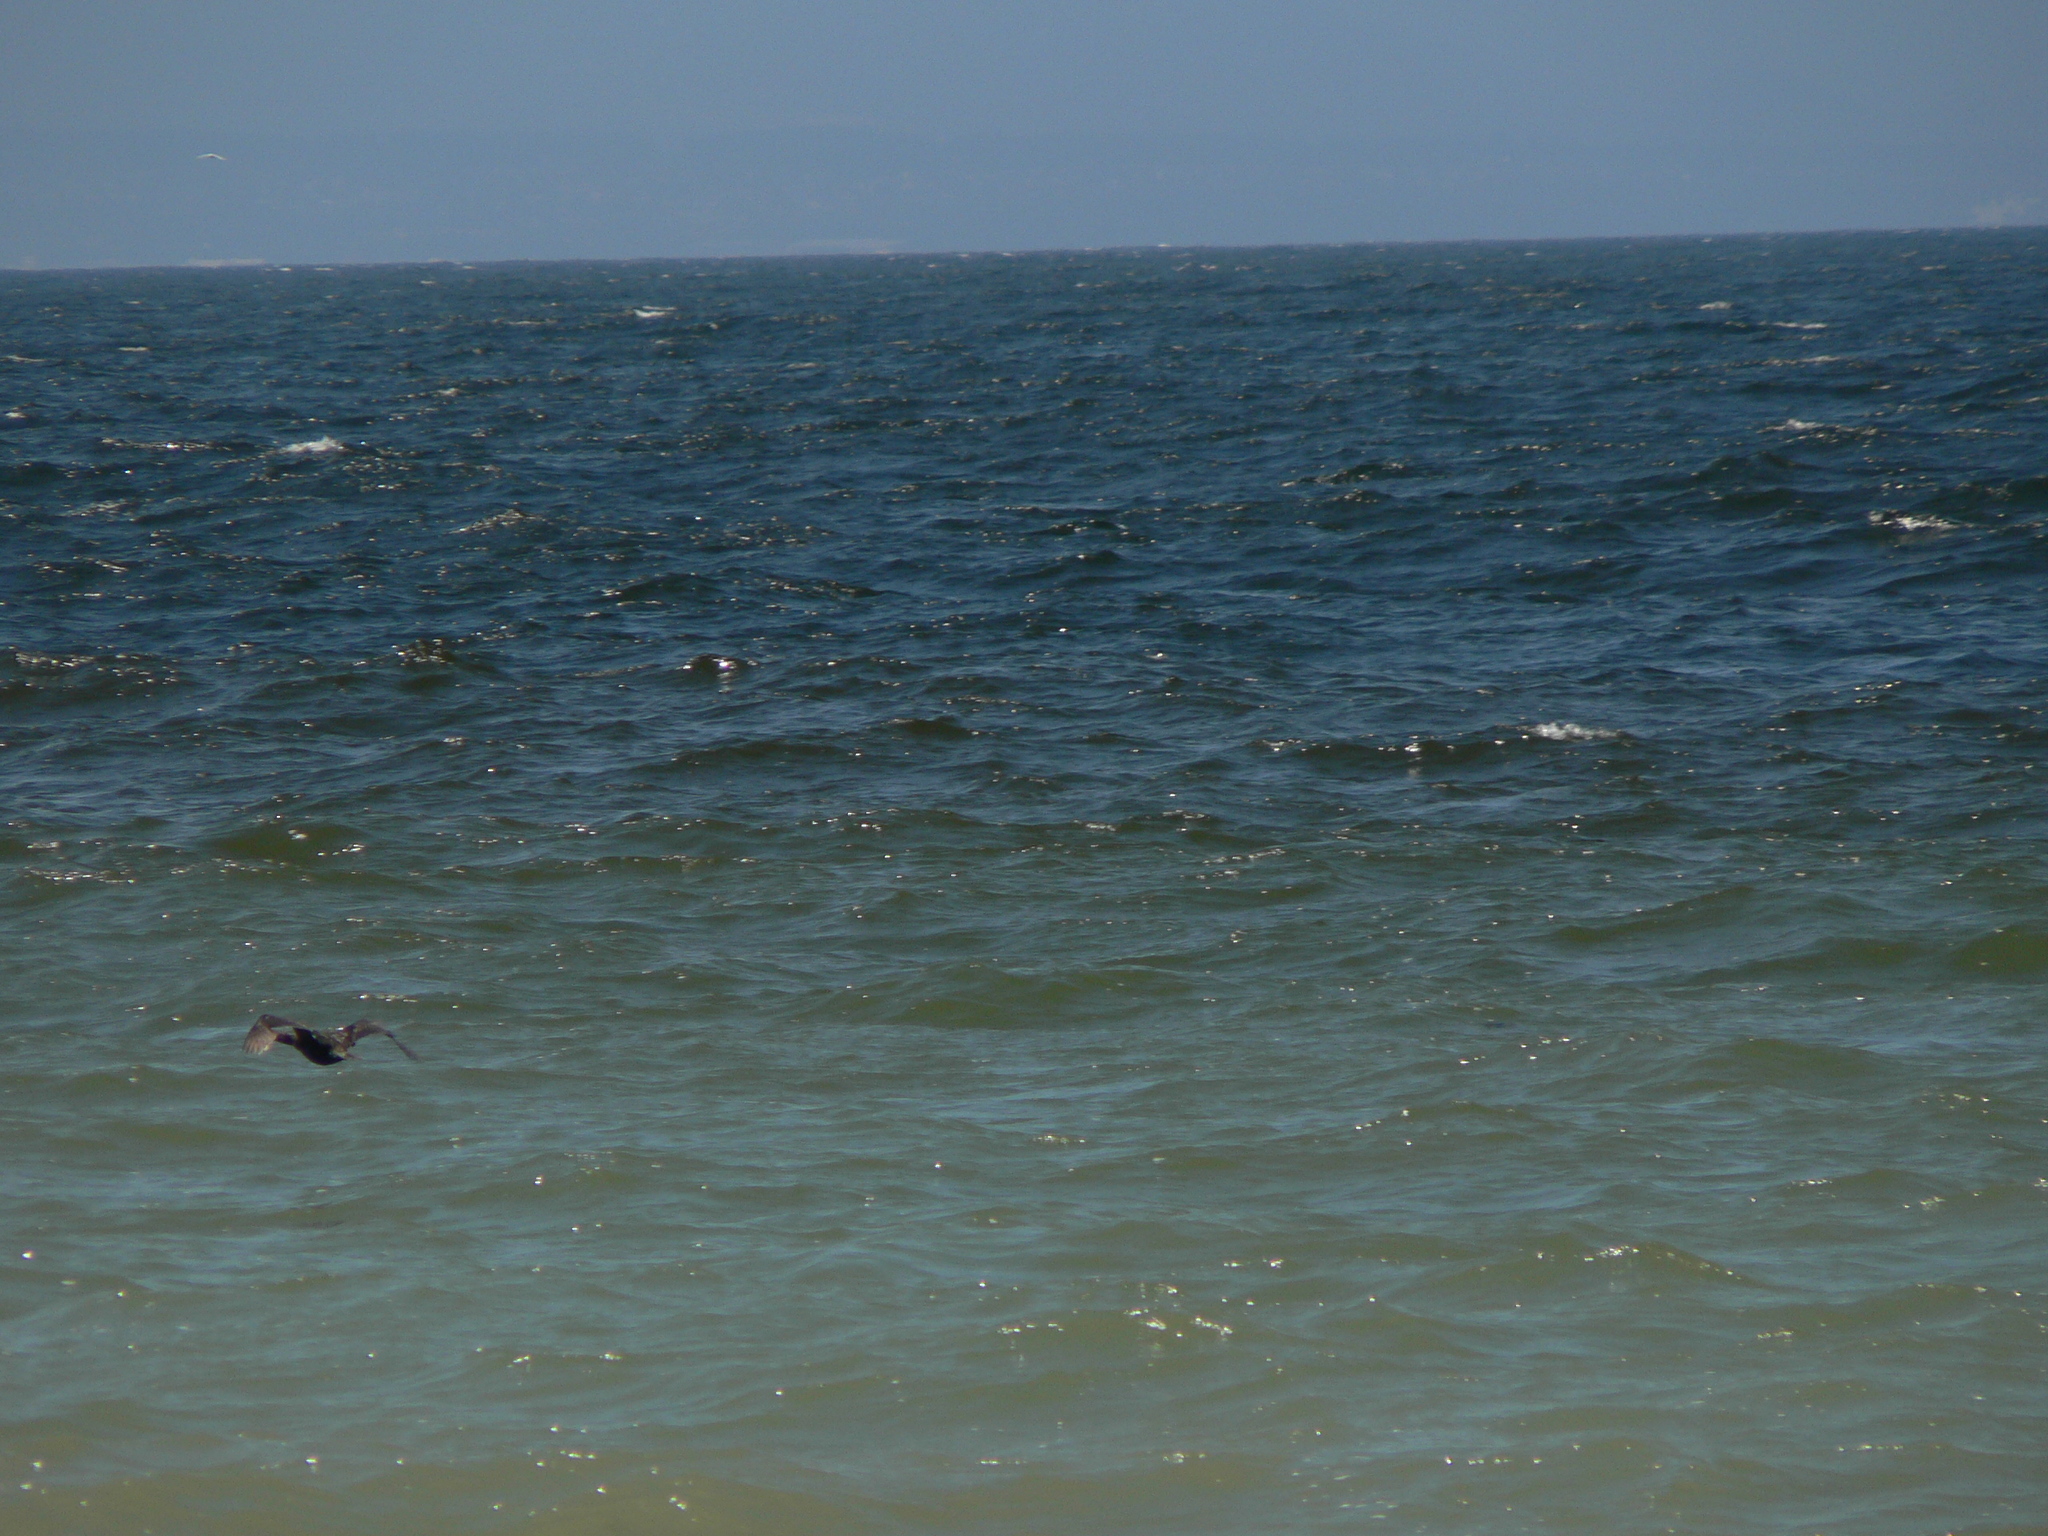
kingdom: Animalia
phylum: Chordata
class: Aves
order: Suliformes
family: Phalacrocoracidae
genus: Phalacrocorax
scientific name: Phalacrocorax pelagicus
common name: Pelagic cormorant
